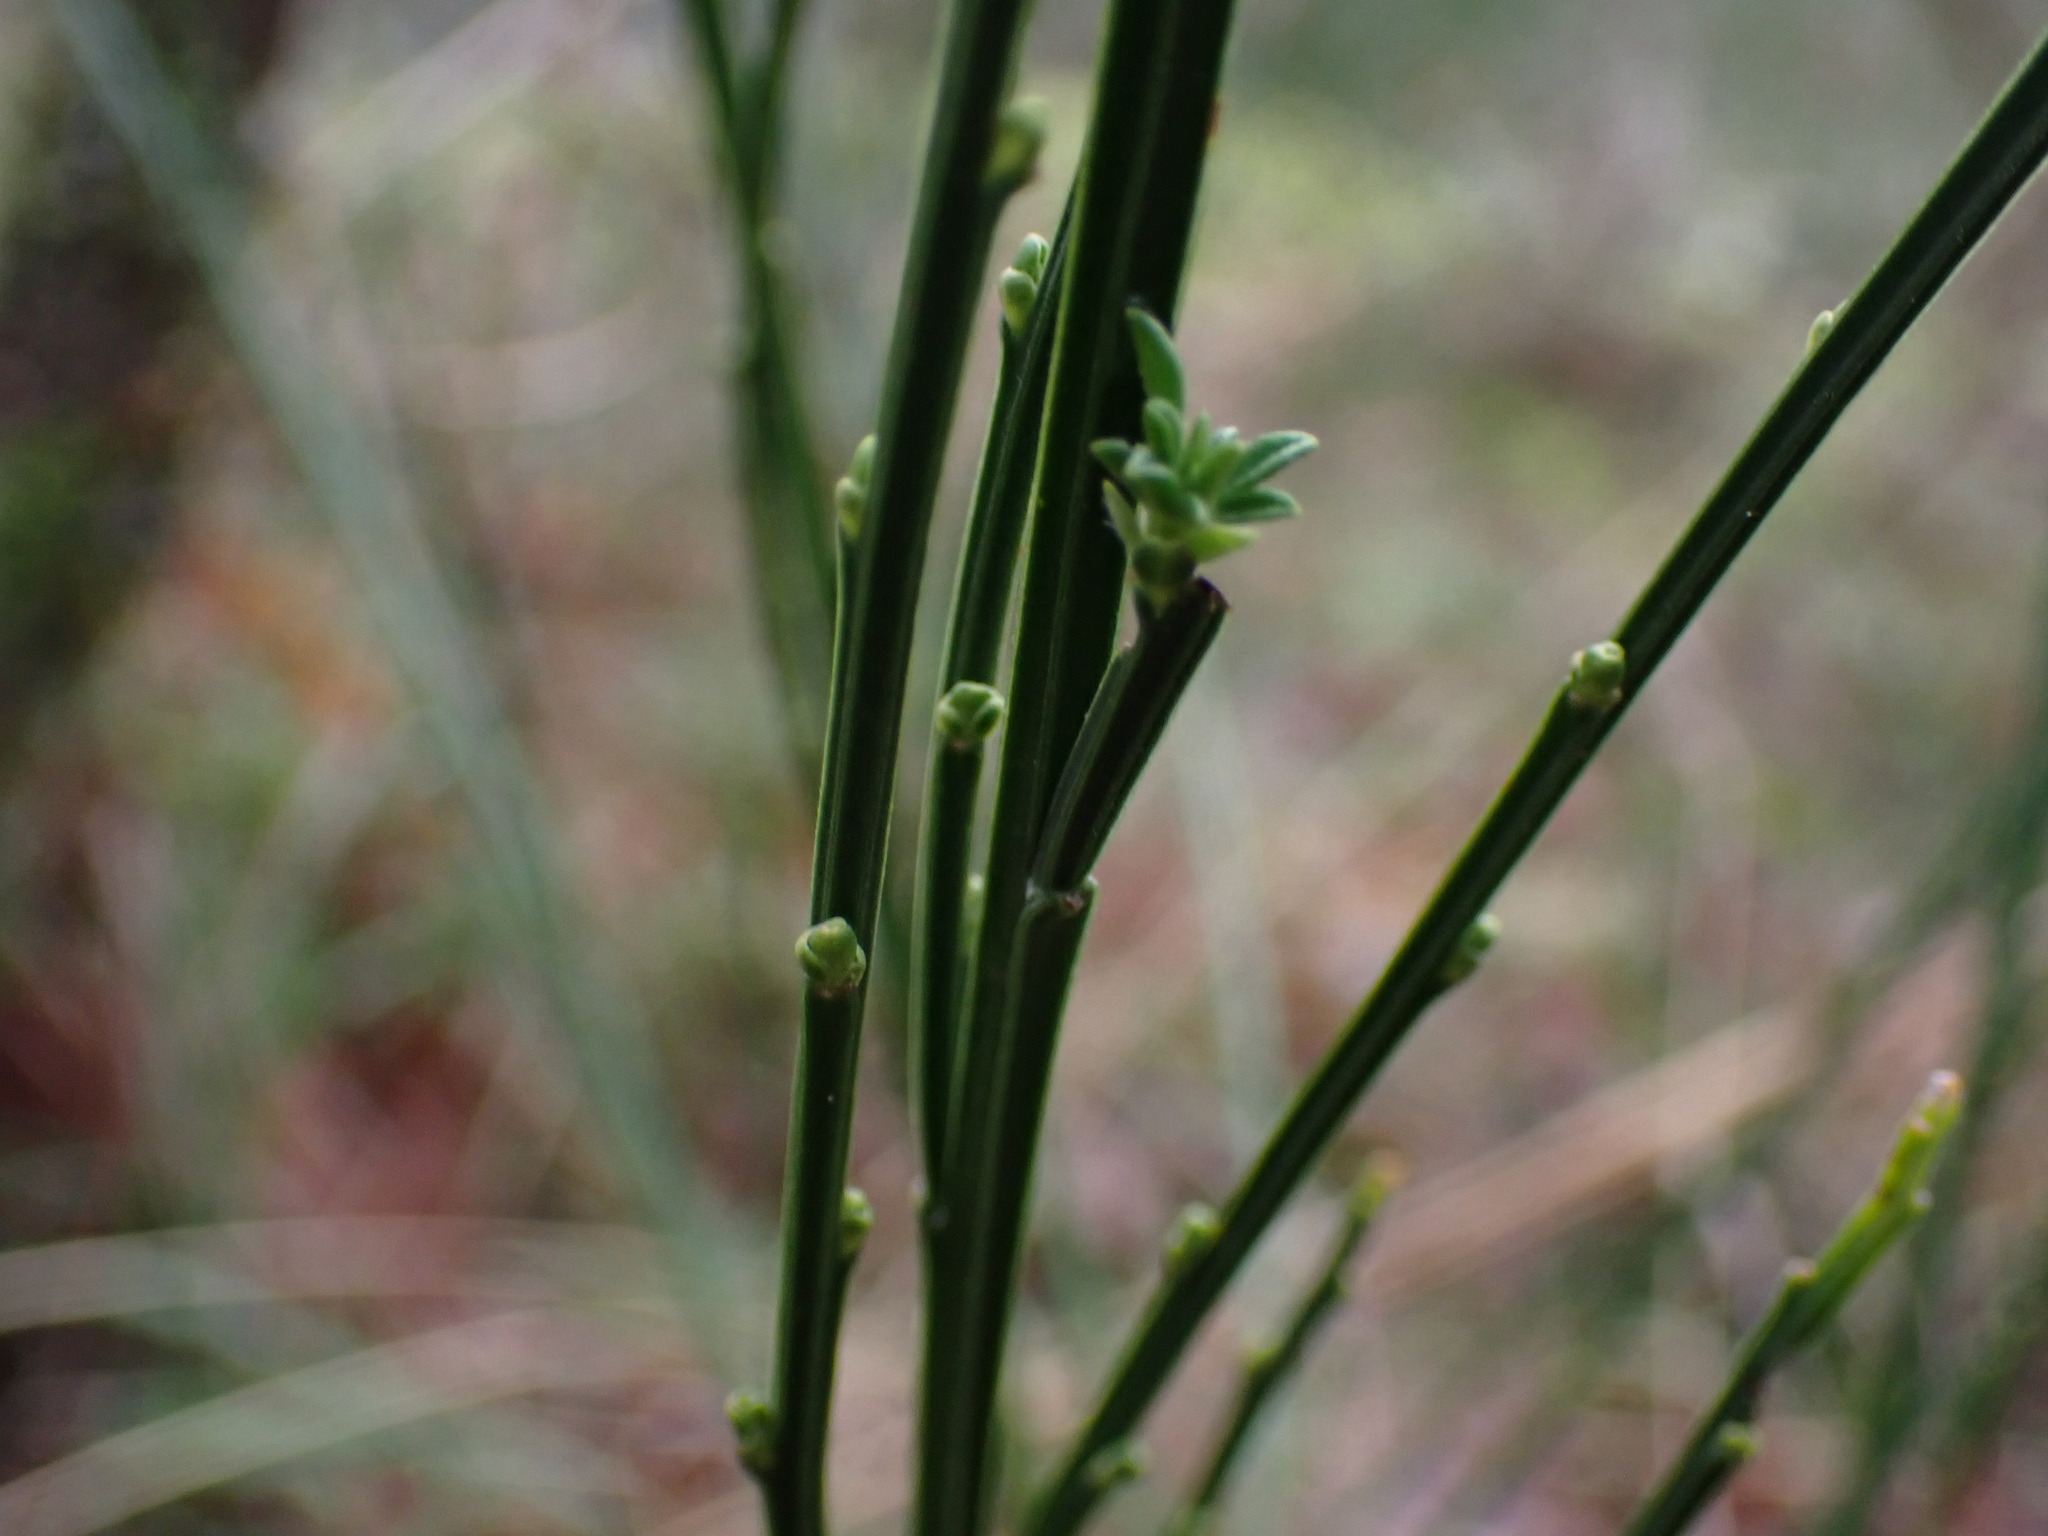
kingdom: Plantae
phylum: Tracheophyta
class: Magnoliopsida
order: Fabales
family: Fabaceae
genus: Cytisus
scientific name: Cytisus scoparius
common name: Scotch broom
